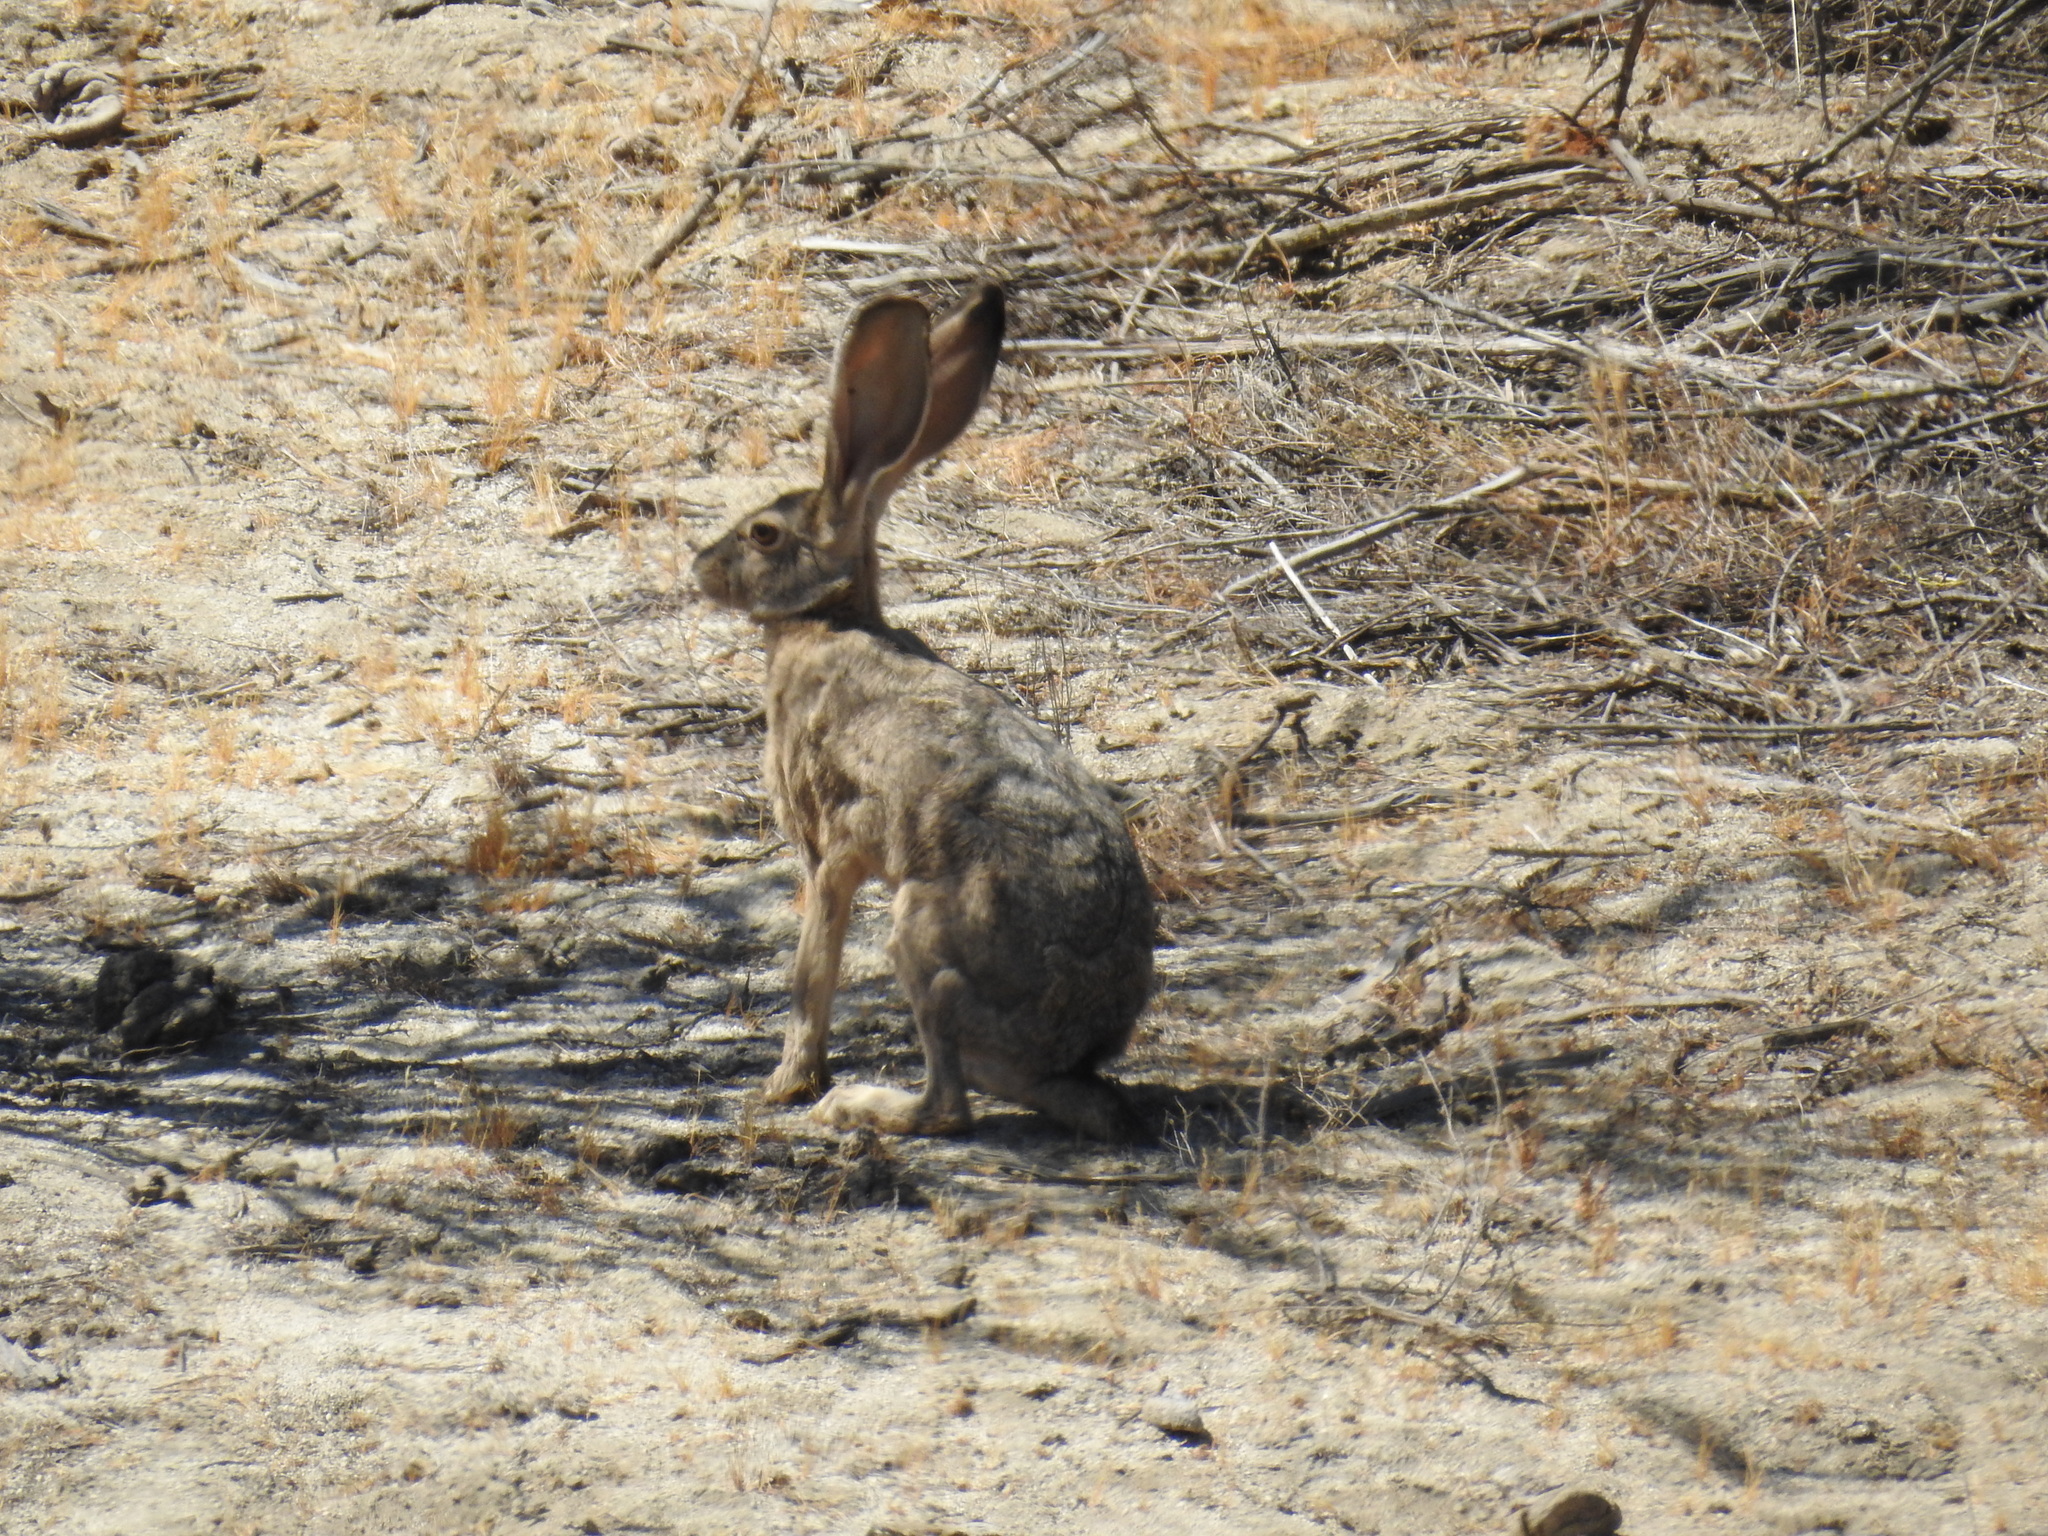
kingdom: Animalia
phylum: Chordata
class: Mammalia
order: Lagomorpha
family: Leporidae
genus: Lepus
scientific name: Lepus californicus
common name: Black-tailed jackrabbit
